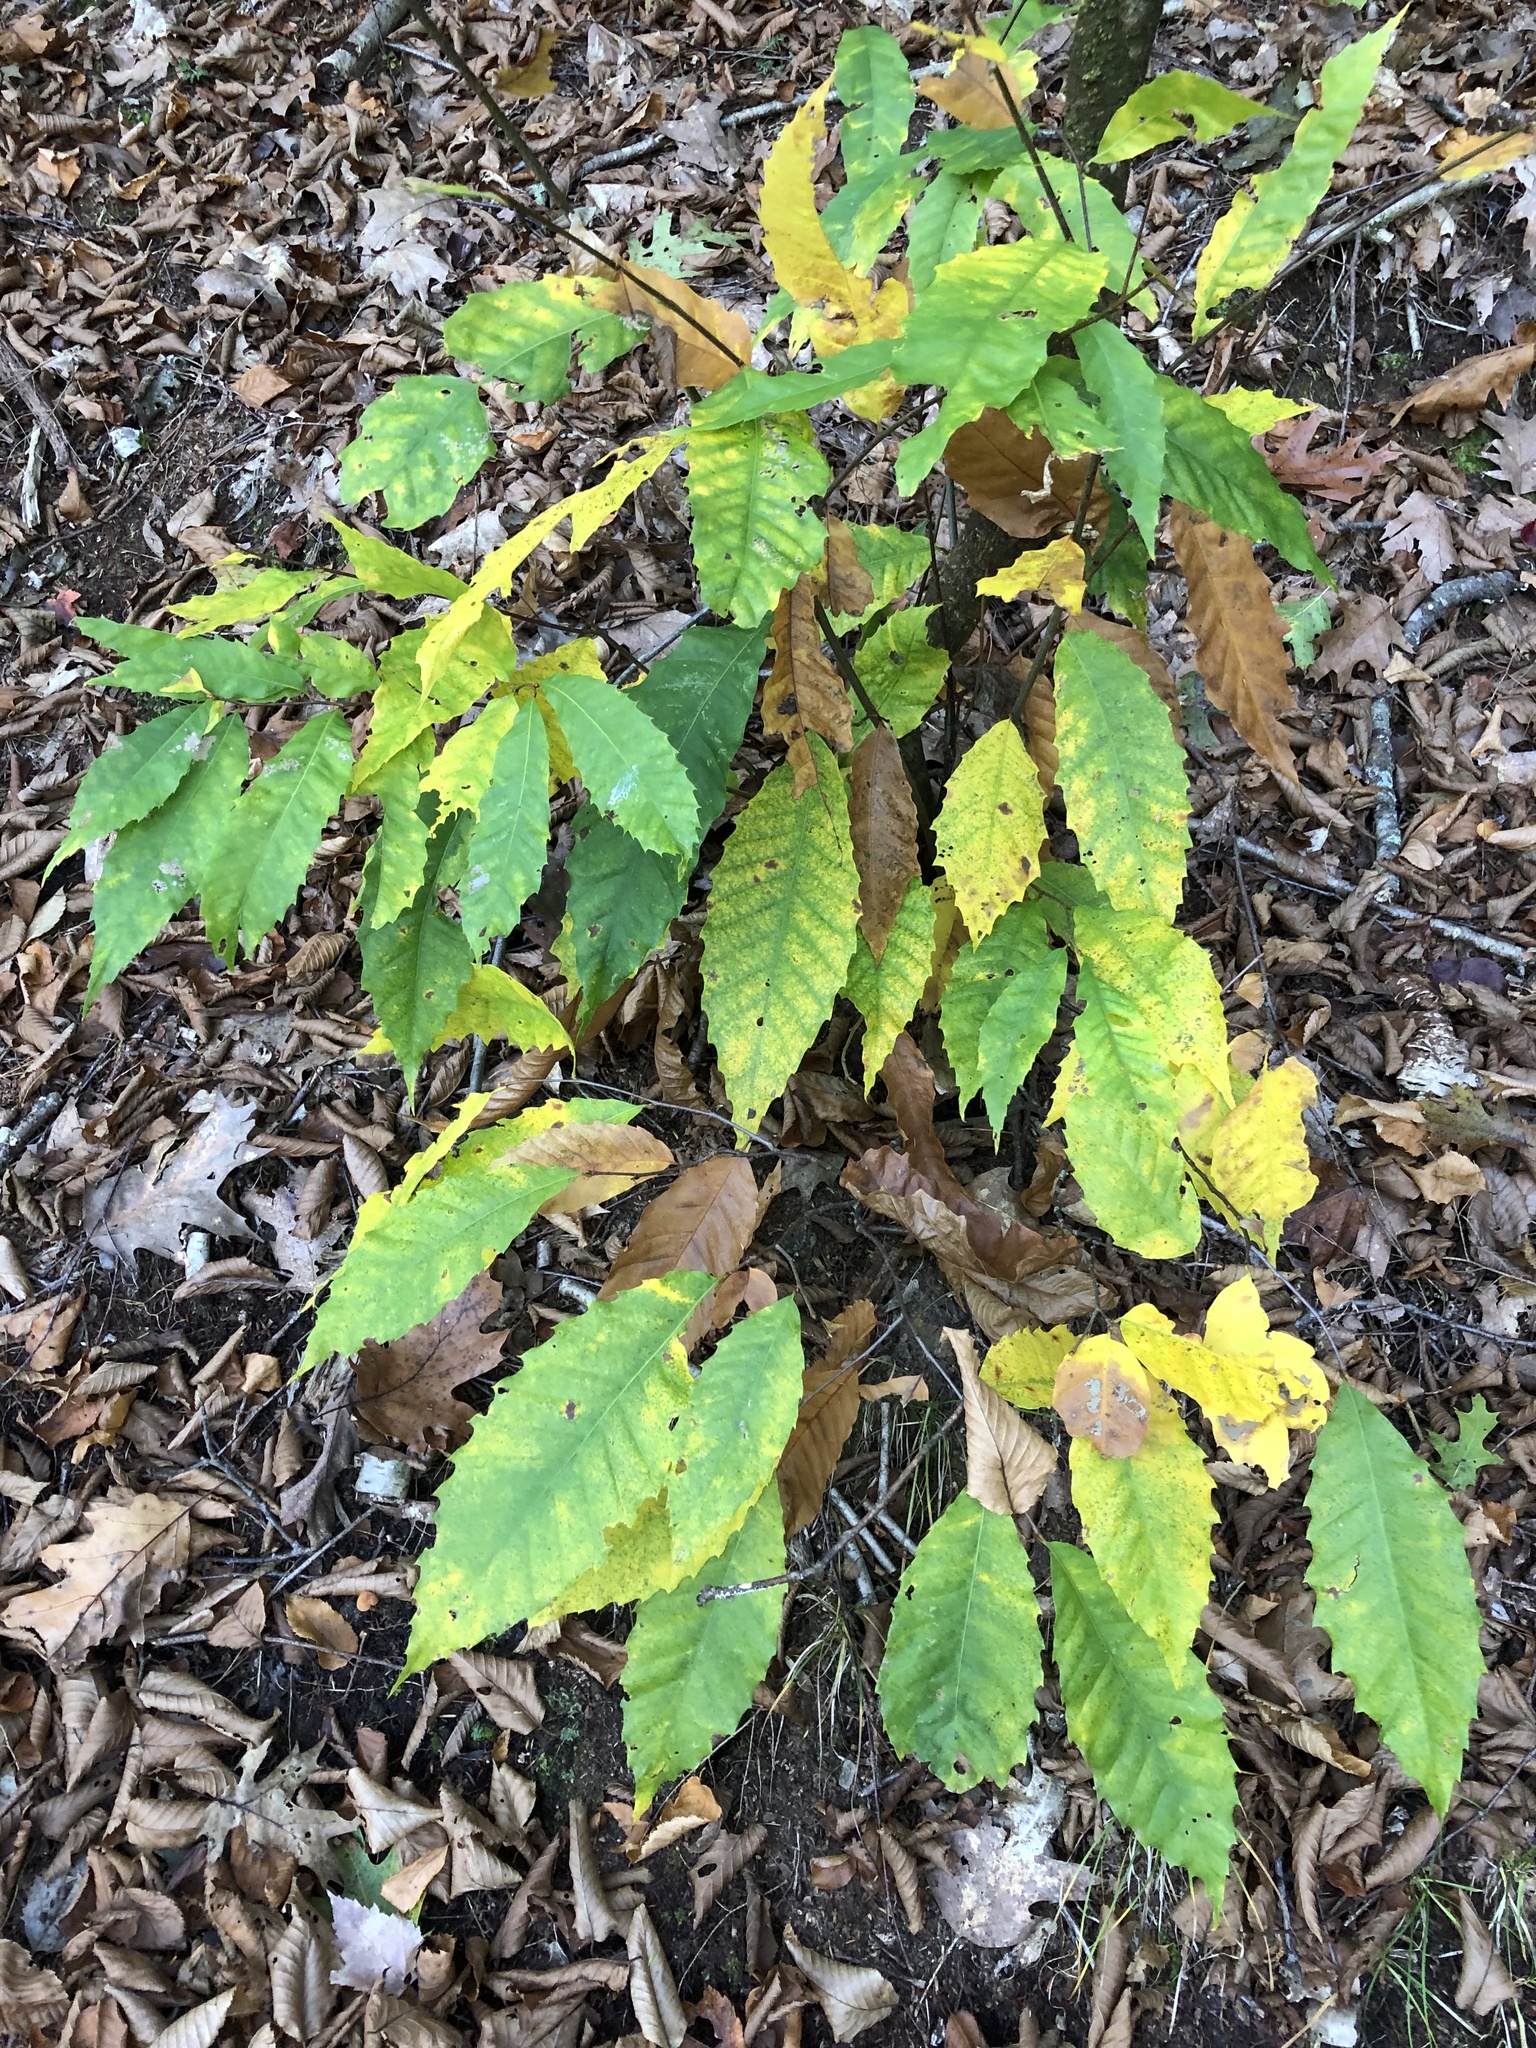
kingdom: Plantae
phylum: Tracheophyta
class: Magnoliopsida
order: Fagales
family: Fagaceae
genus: Castanea
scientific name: Castanea dentata
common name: American chestnut
